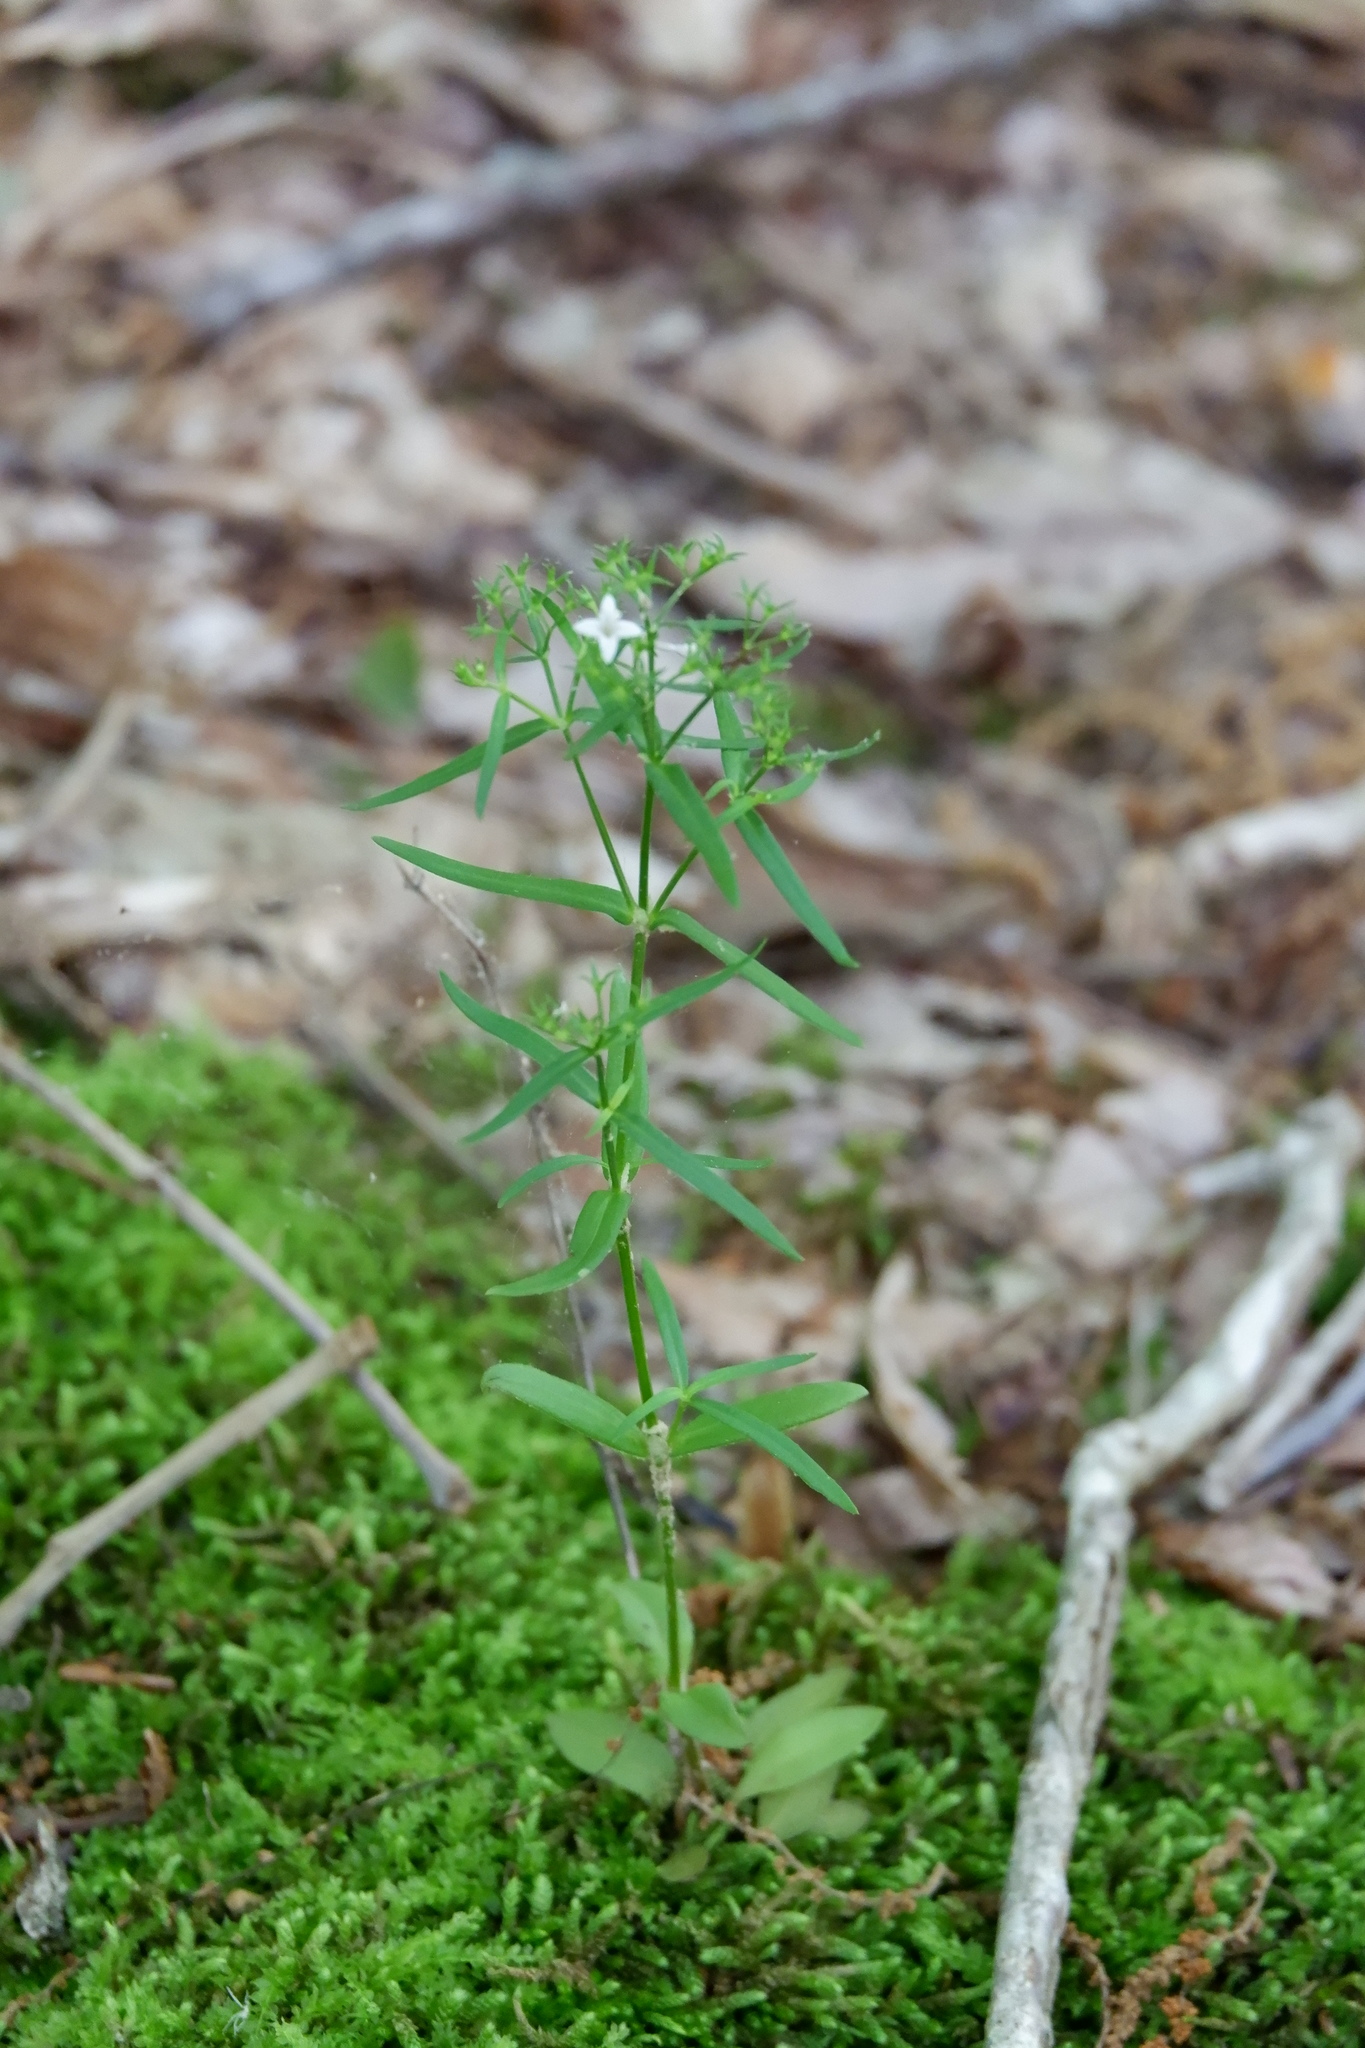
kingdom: Plantae
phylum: Tracheophyta
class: Magnoliopsida
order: Gentianales
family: Rubiaceae
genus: Houstonia
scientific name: Houstonia longifolia
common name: Long-leaved bluets
